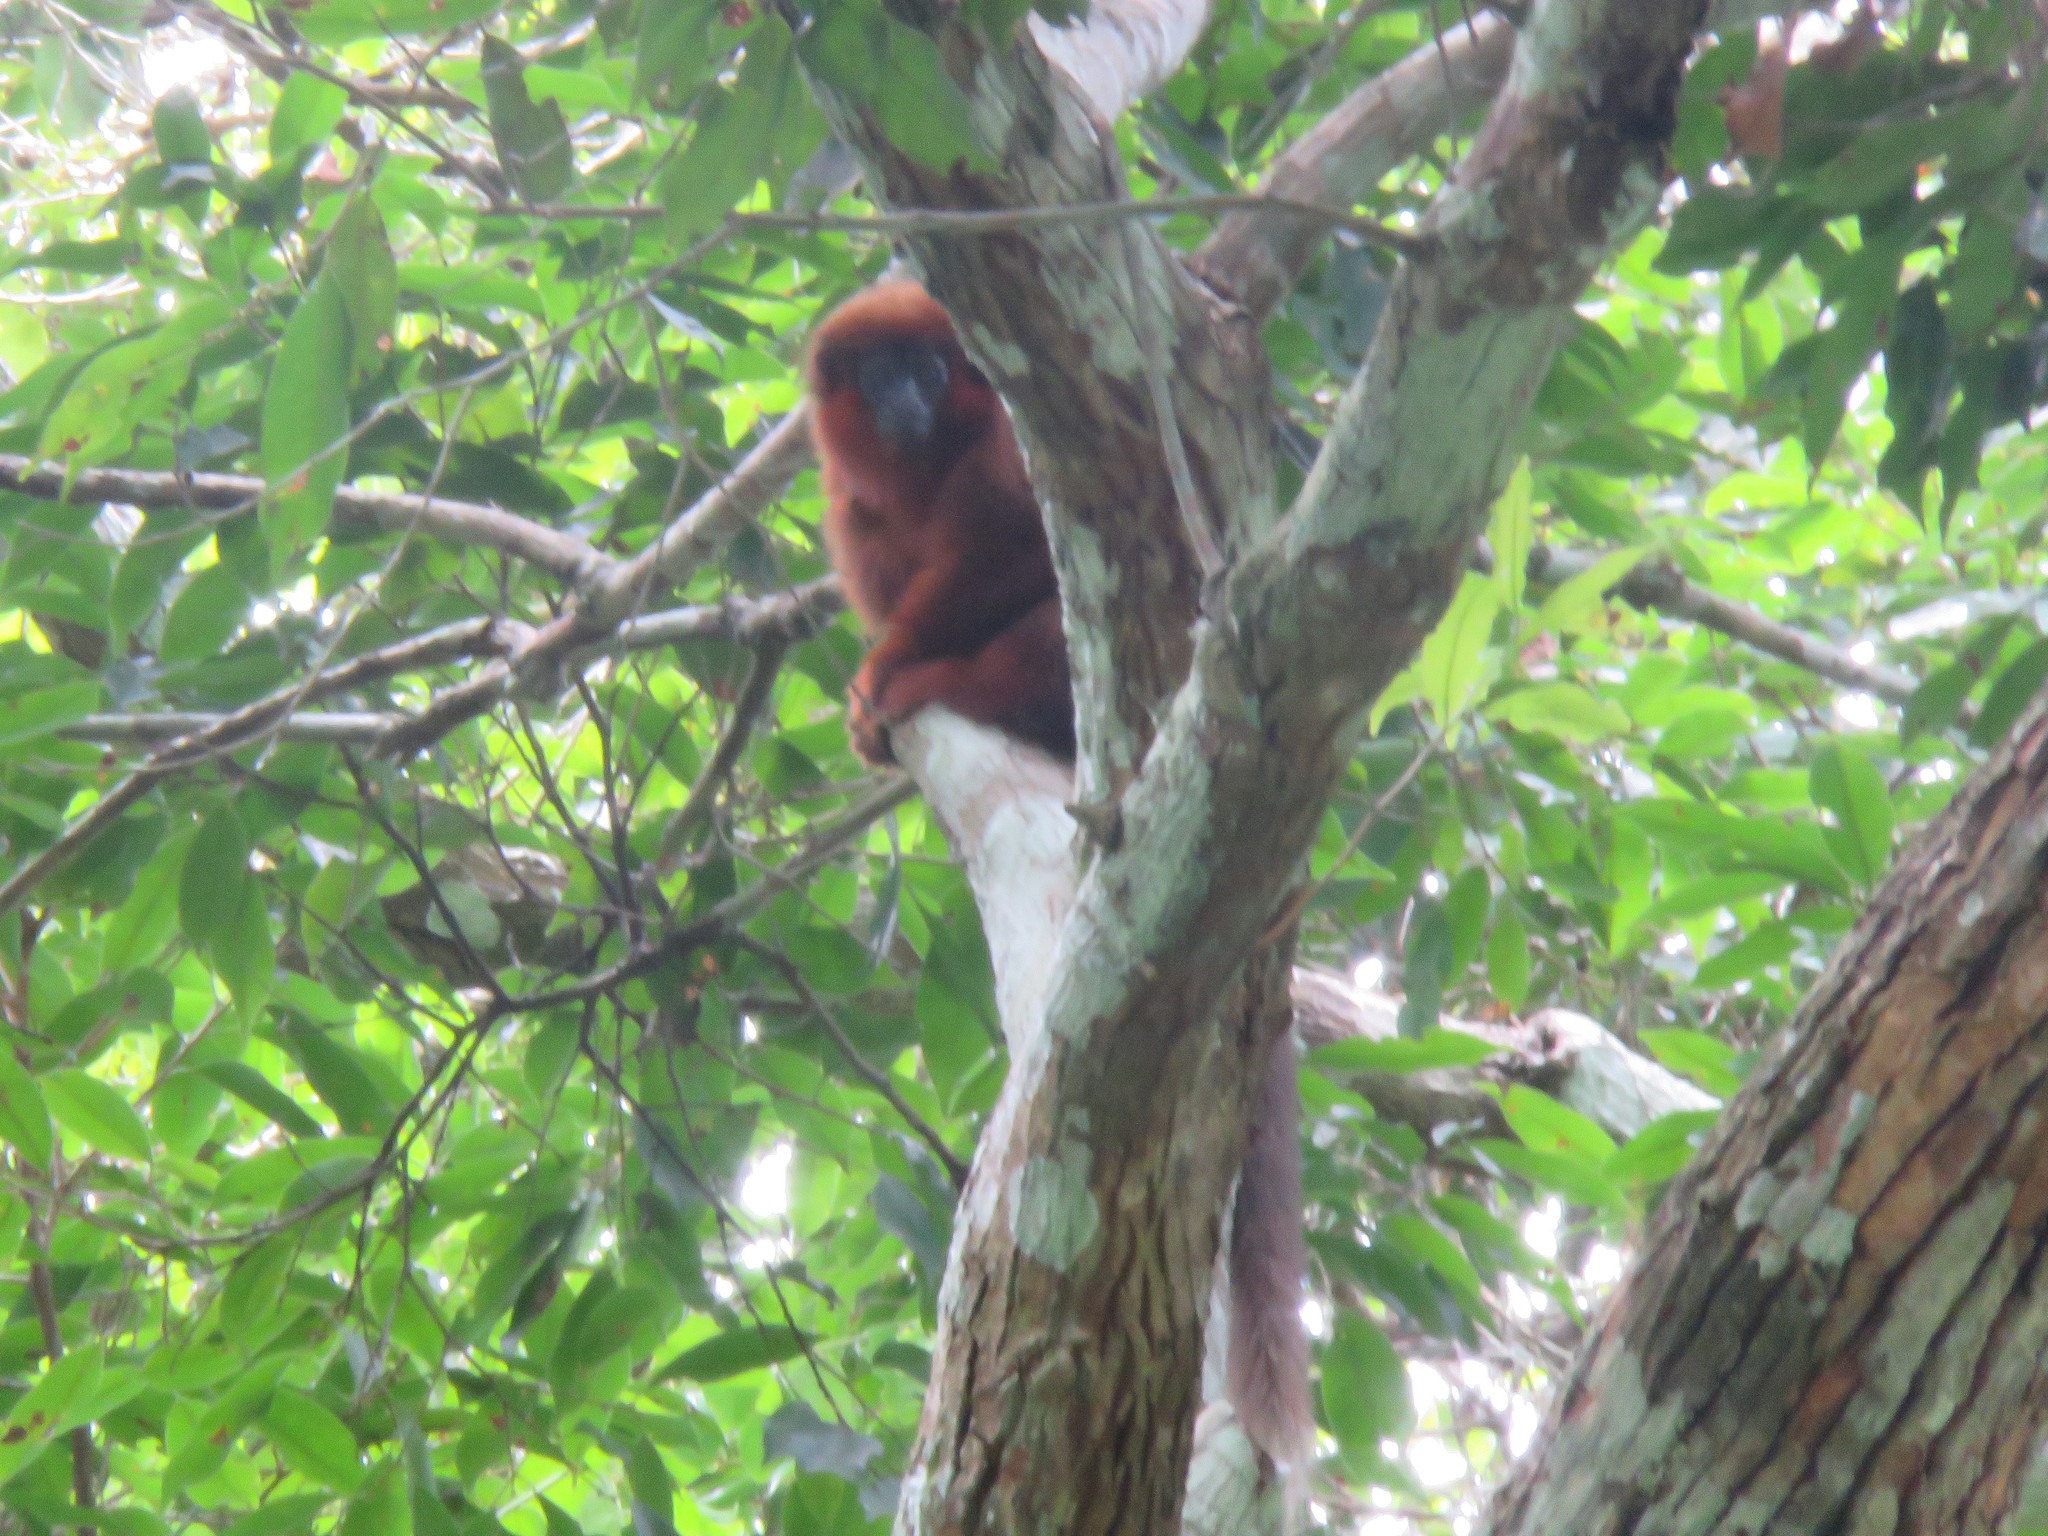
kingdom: Animalia
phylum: Chordata
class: Mammalia
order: Primates
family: Pitheciidae
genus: Plecturocebus
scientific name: Plecturocebus toppini
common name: Toppin's titi
